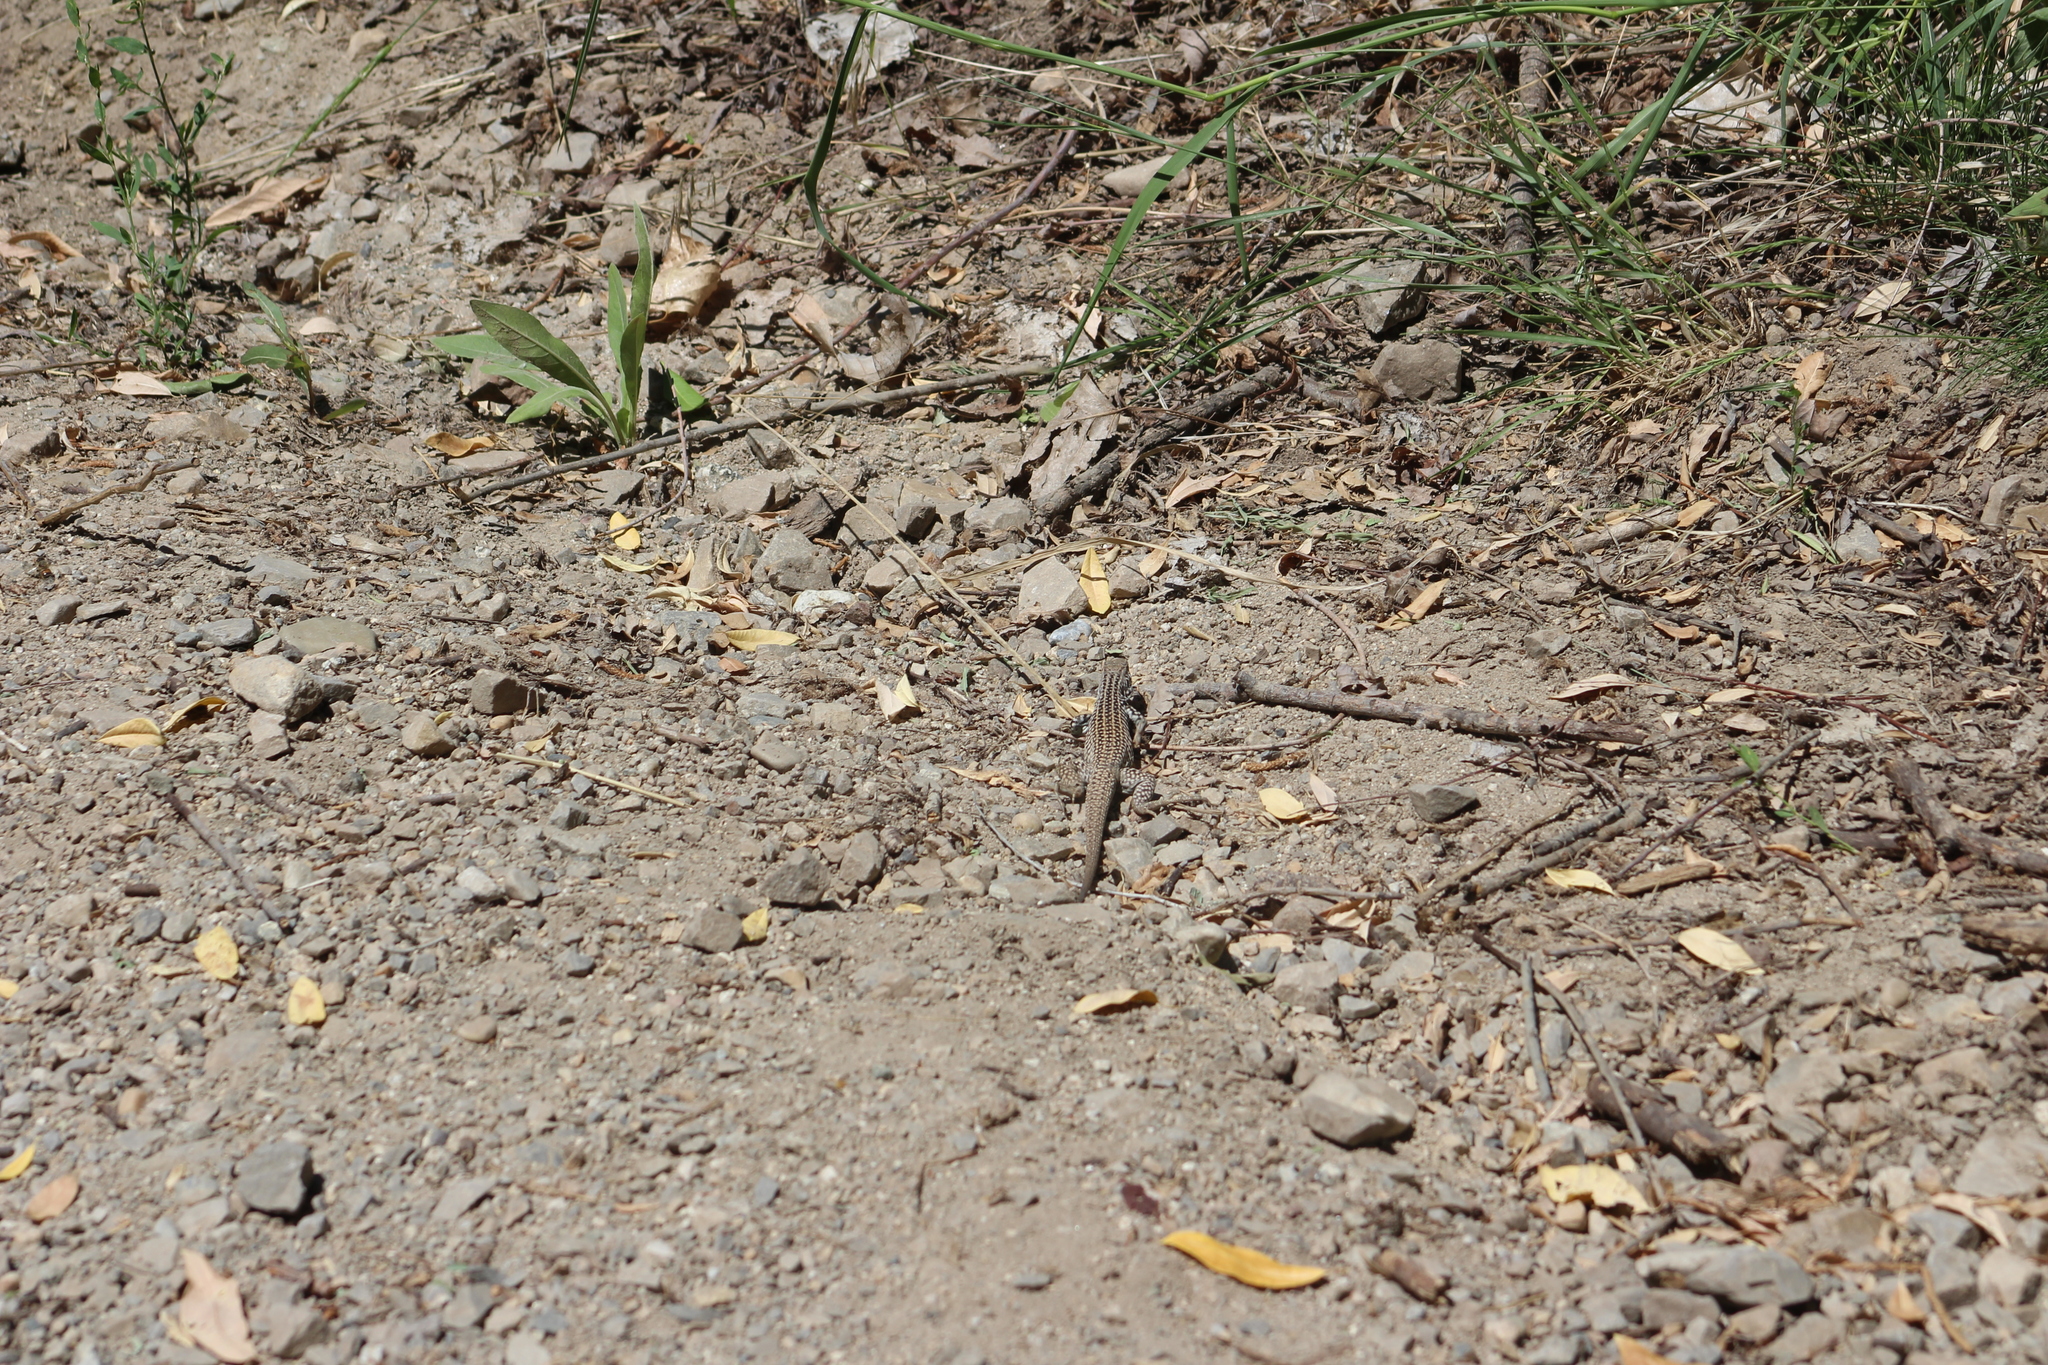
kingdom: Animalia
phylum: Chordata
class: Squamata
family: Teiidae
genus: Aspidoscelis
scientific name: Aspidoscelis tigris
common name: Tiger whiptail
